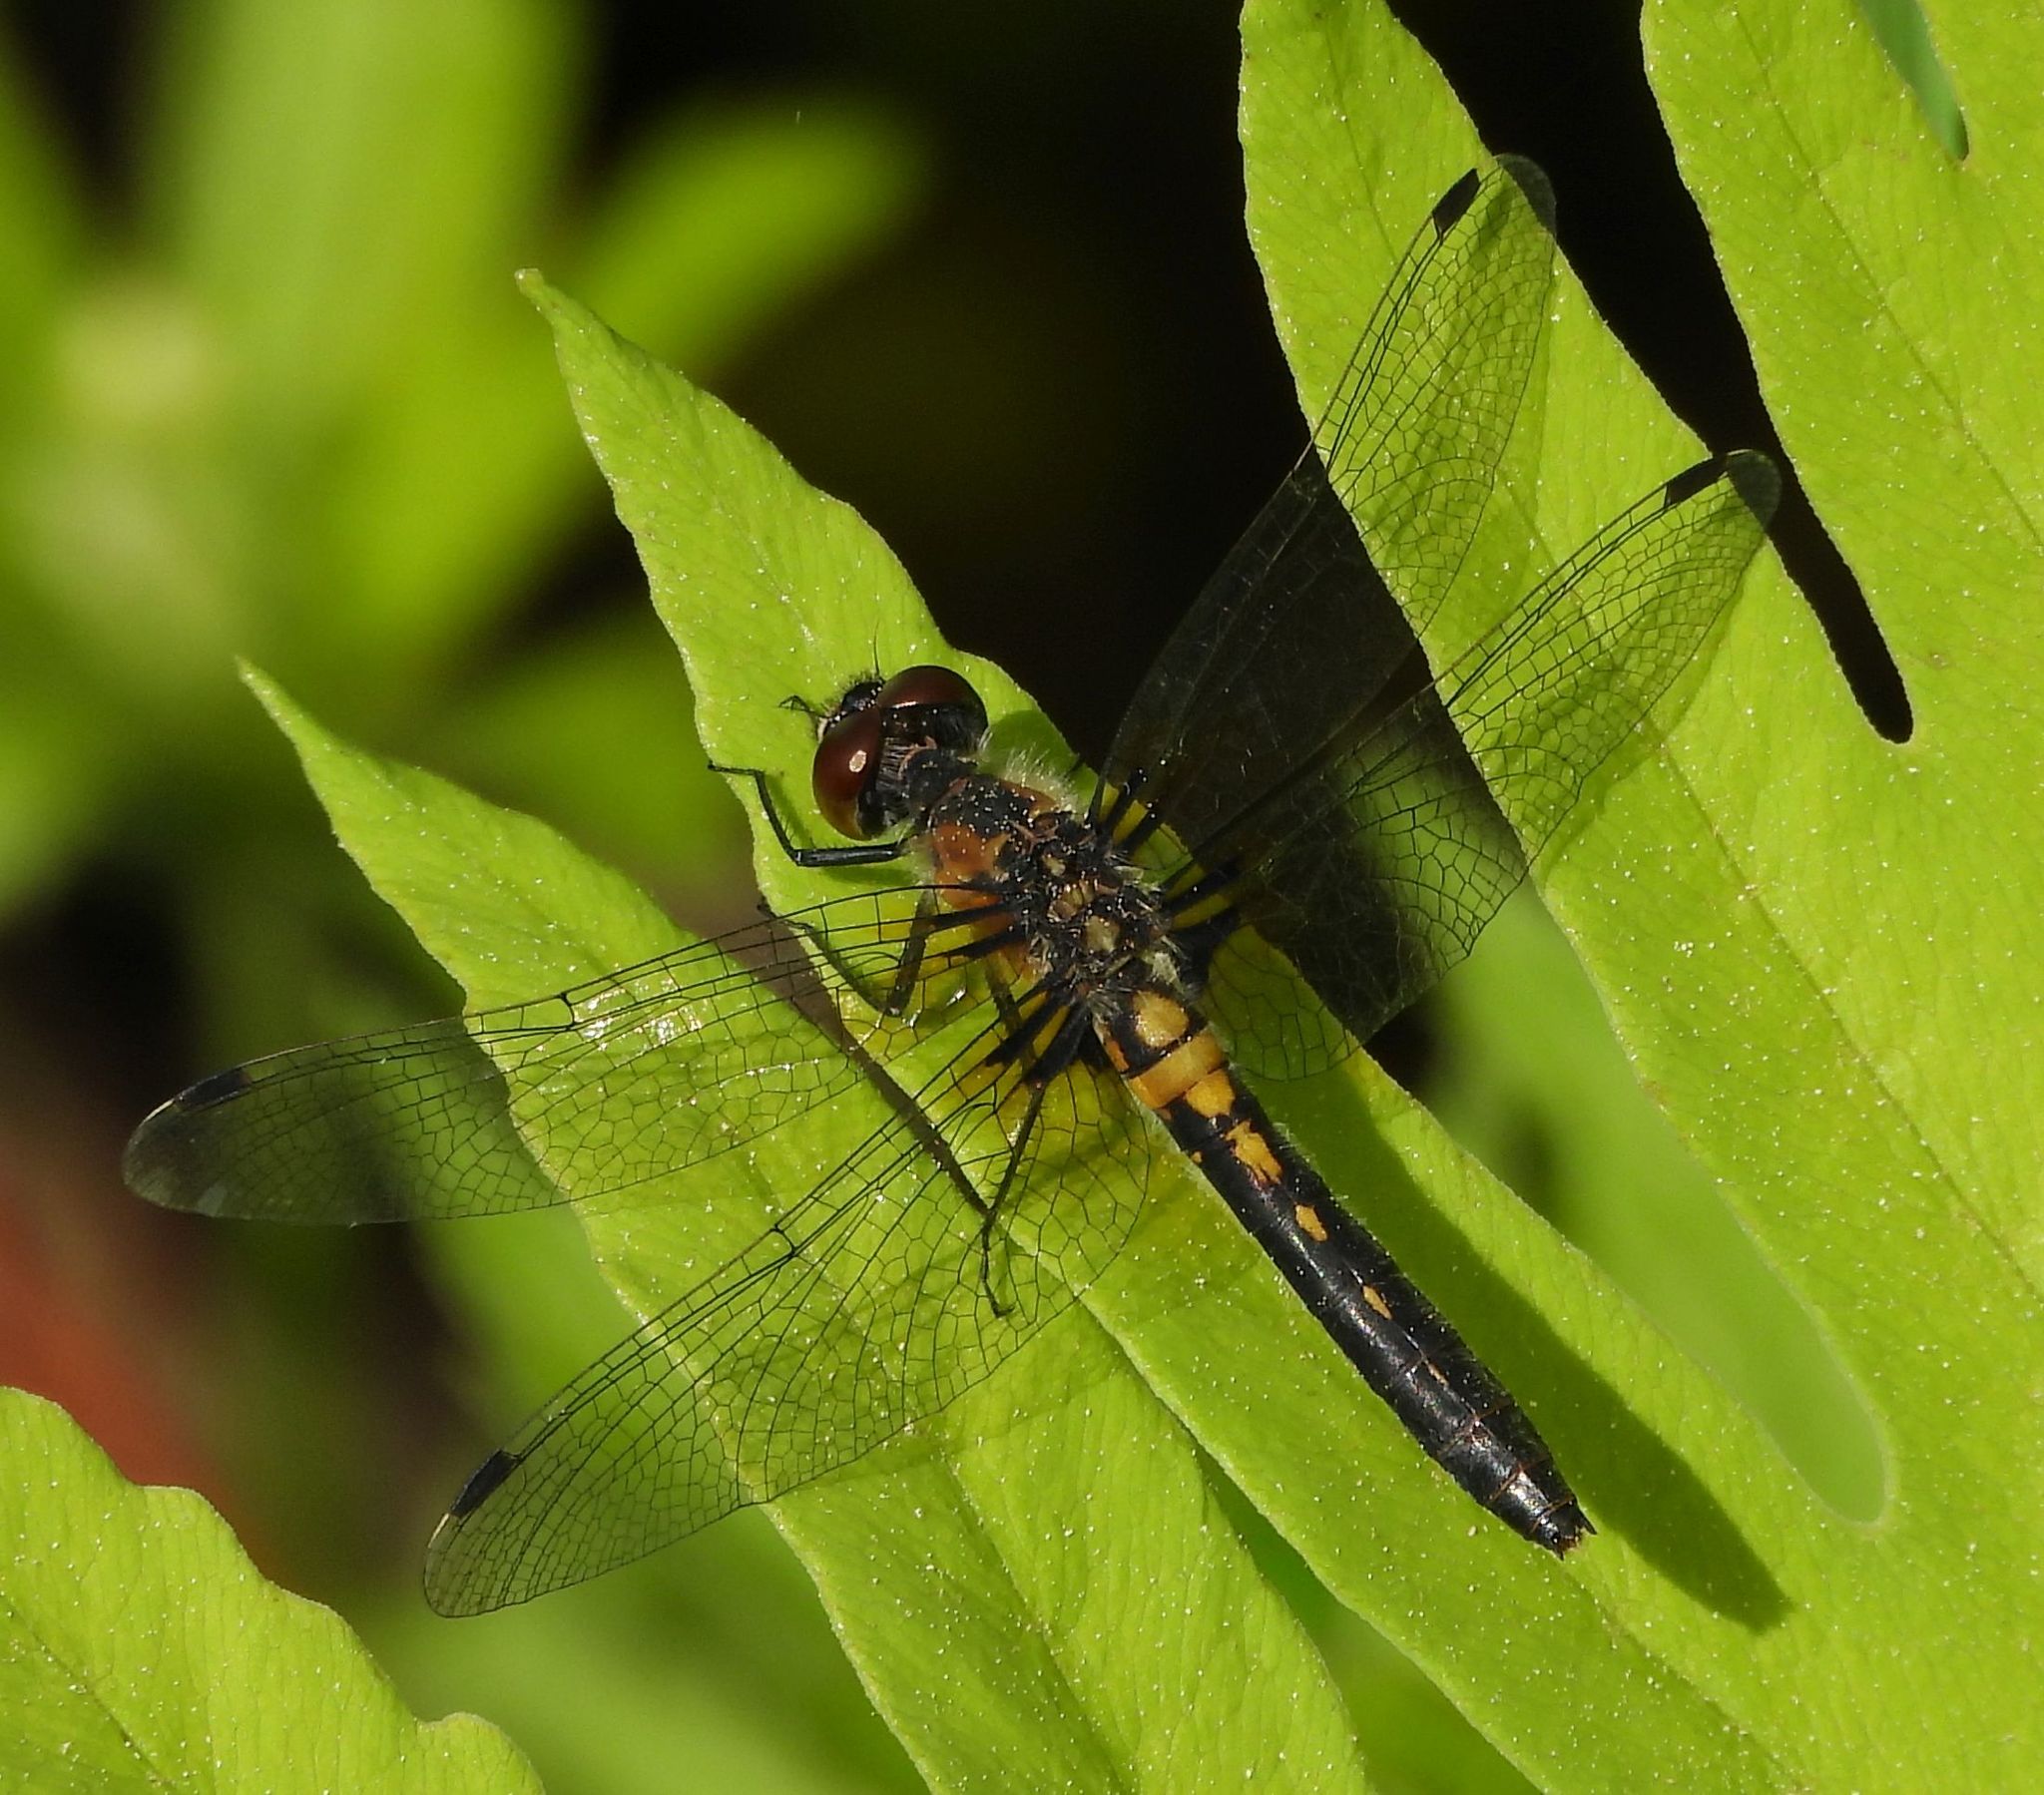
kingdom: Animalia
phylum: Arthropoda
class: Insecta
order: Odonata
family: Libellulidae
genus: Leucorrhinia
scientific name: Leucorrhinia frigida
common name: Frosted whiteface
